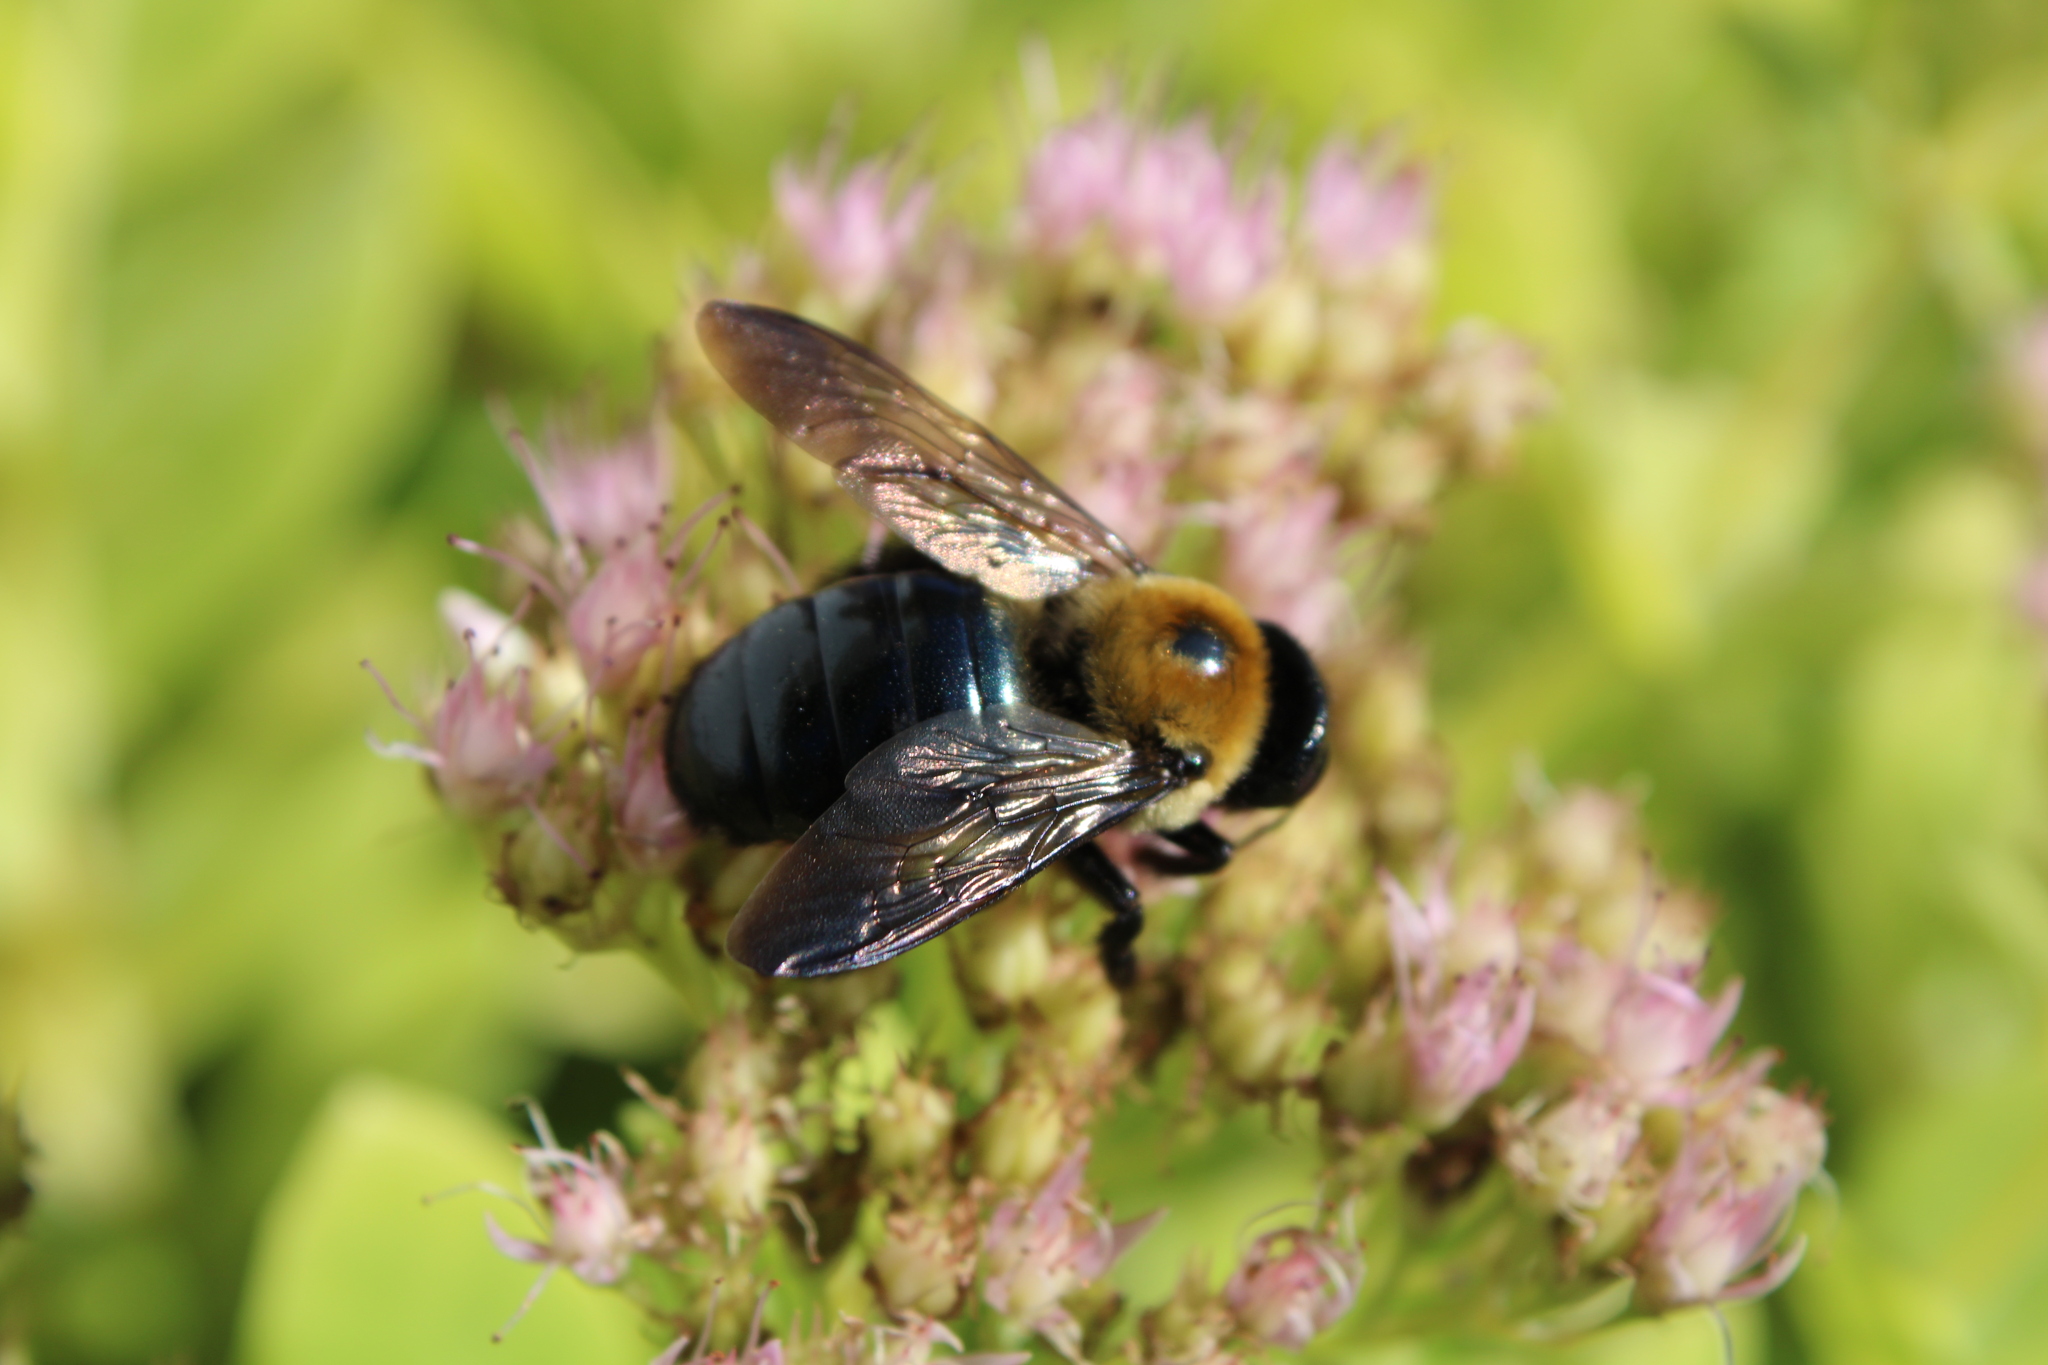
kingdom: Animalia
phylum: Arthropoda
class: Insecta
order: Hymenoptera
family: Apidae
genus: Xylocopa
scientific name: Xylocopa virginica
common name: Carpenter bee
